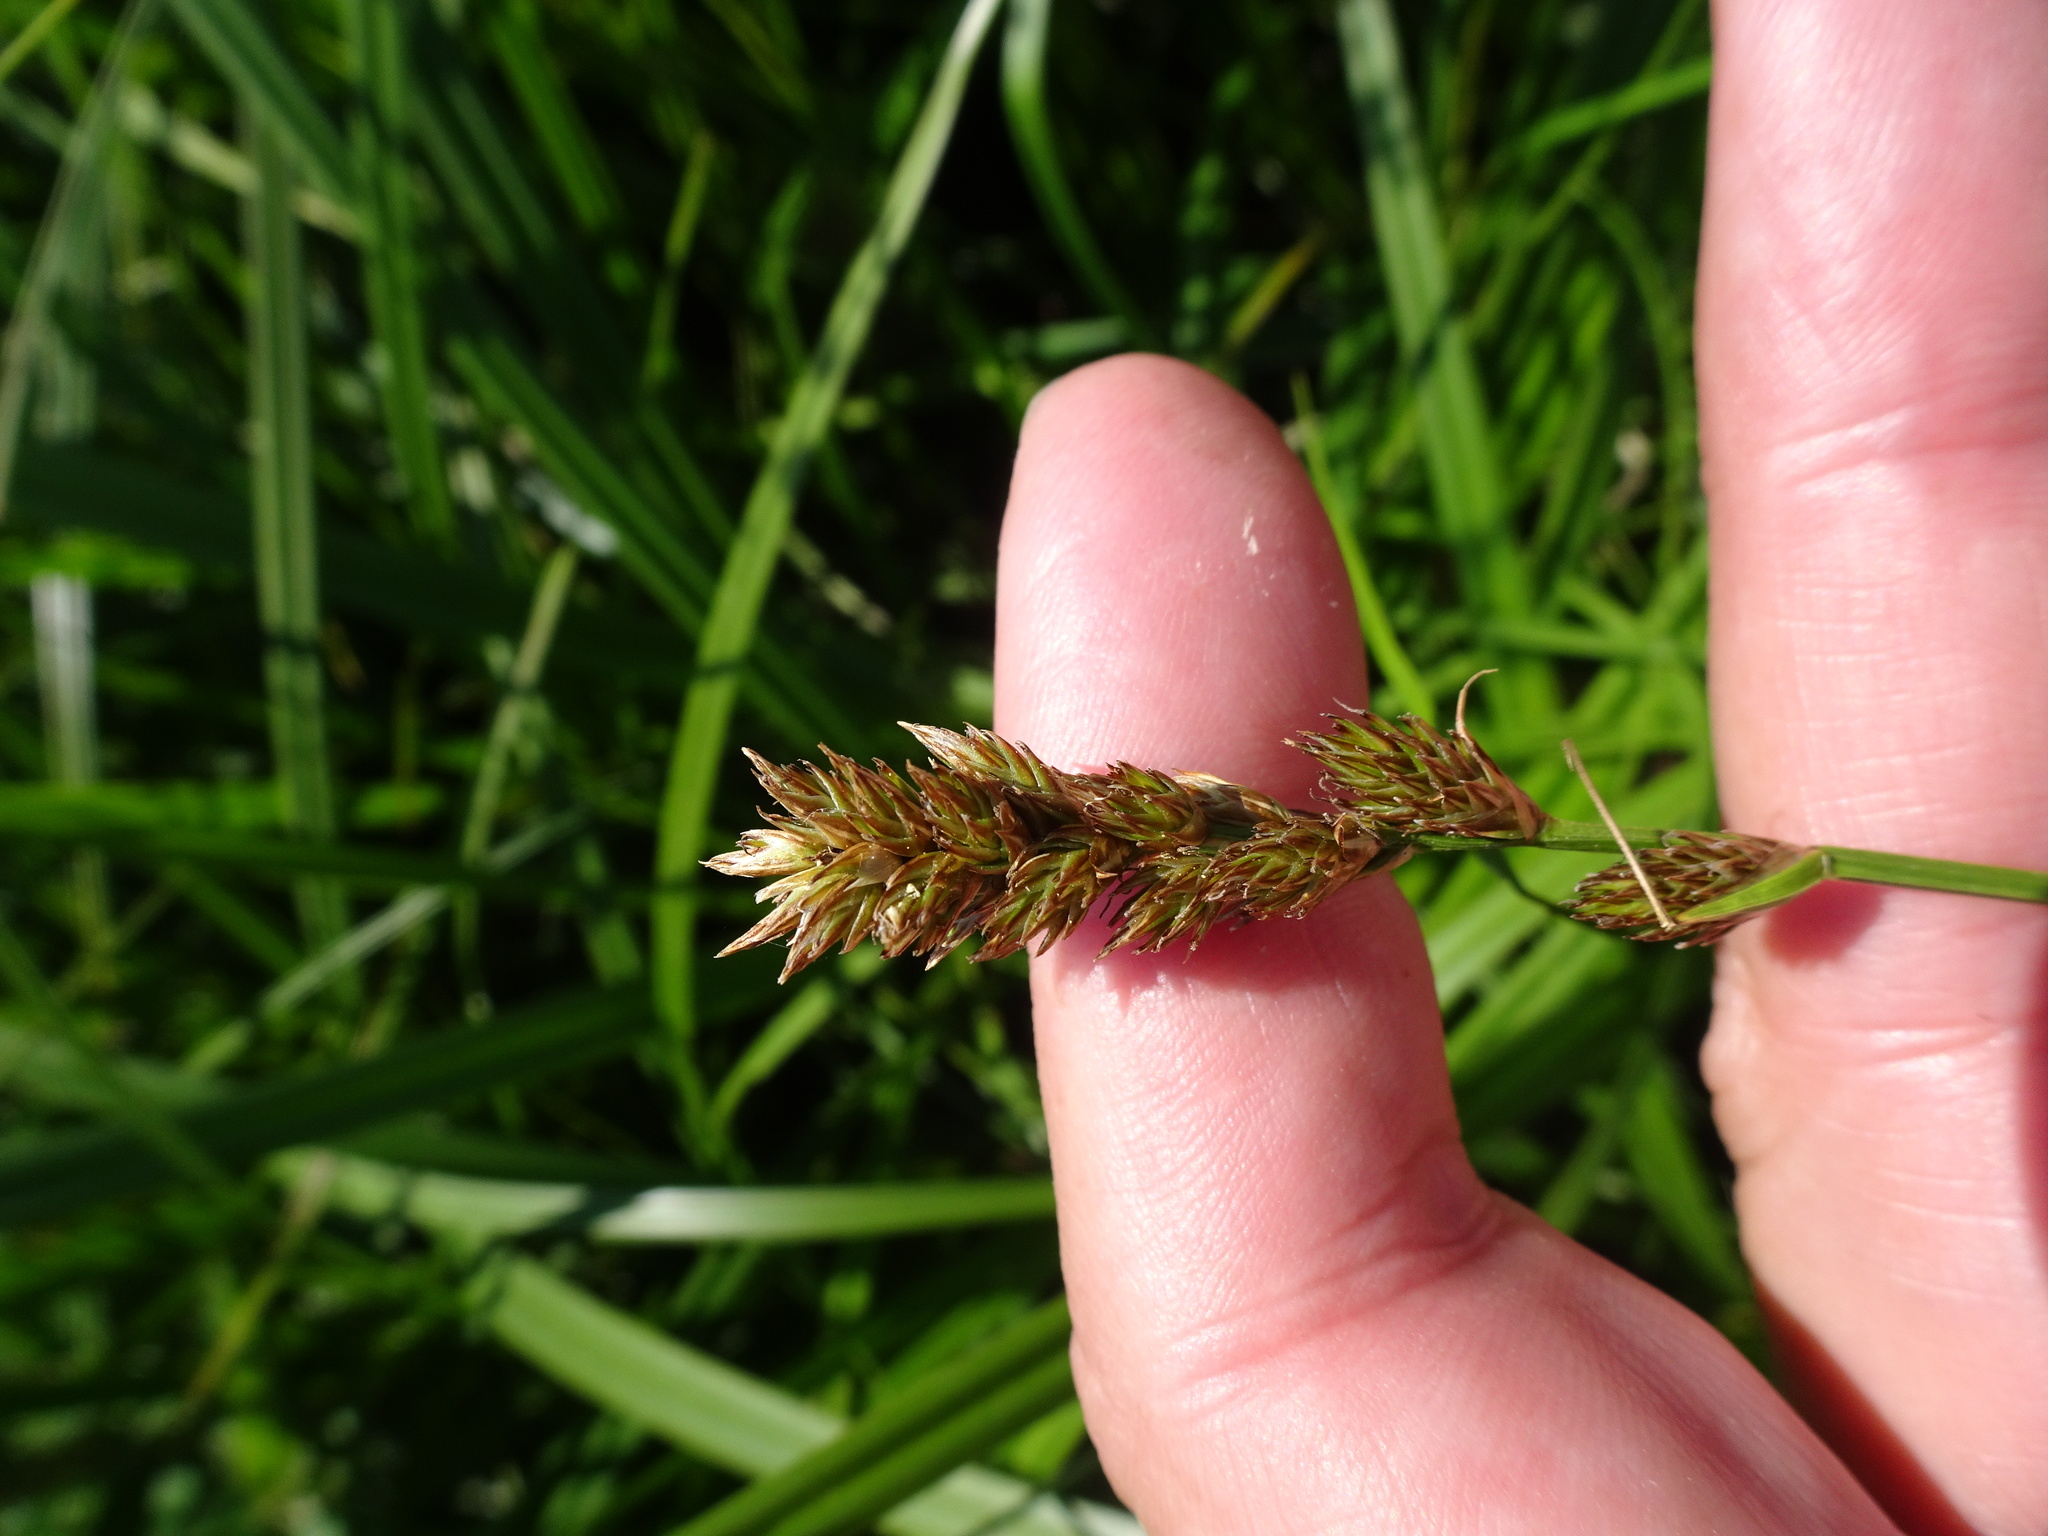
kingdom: Plantae
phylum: Tracheophyta
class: Liliopsida
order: Poales
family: Cyperaceae
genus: Carex
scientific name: Carex leporina
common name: Oval sedge
